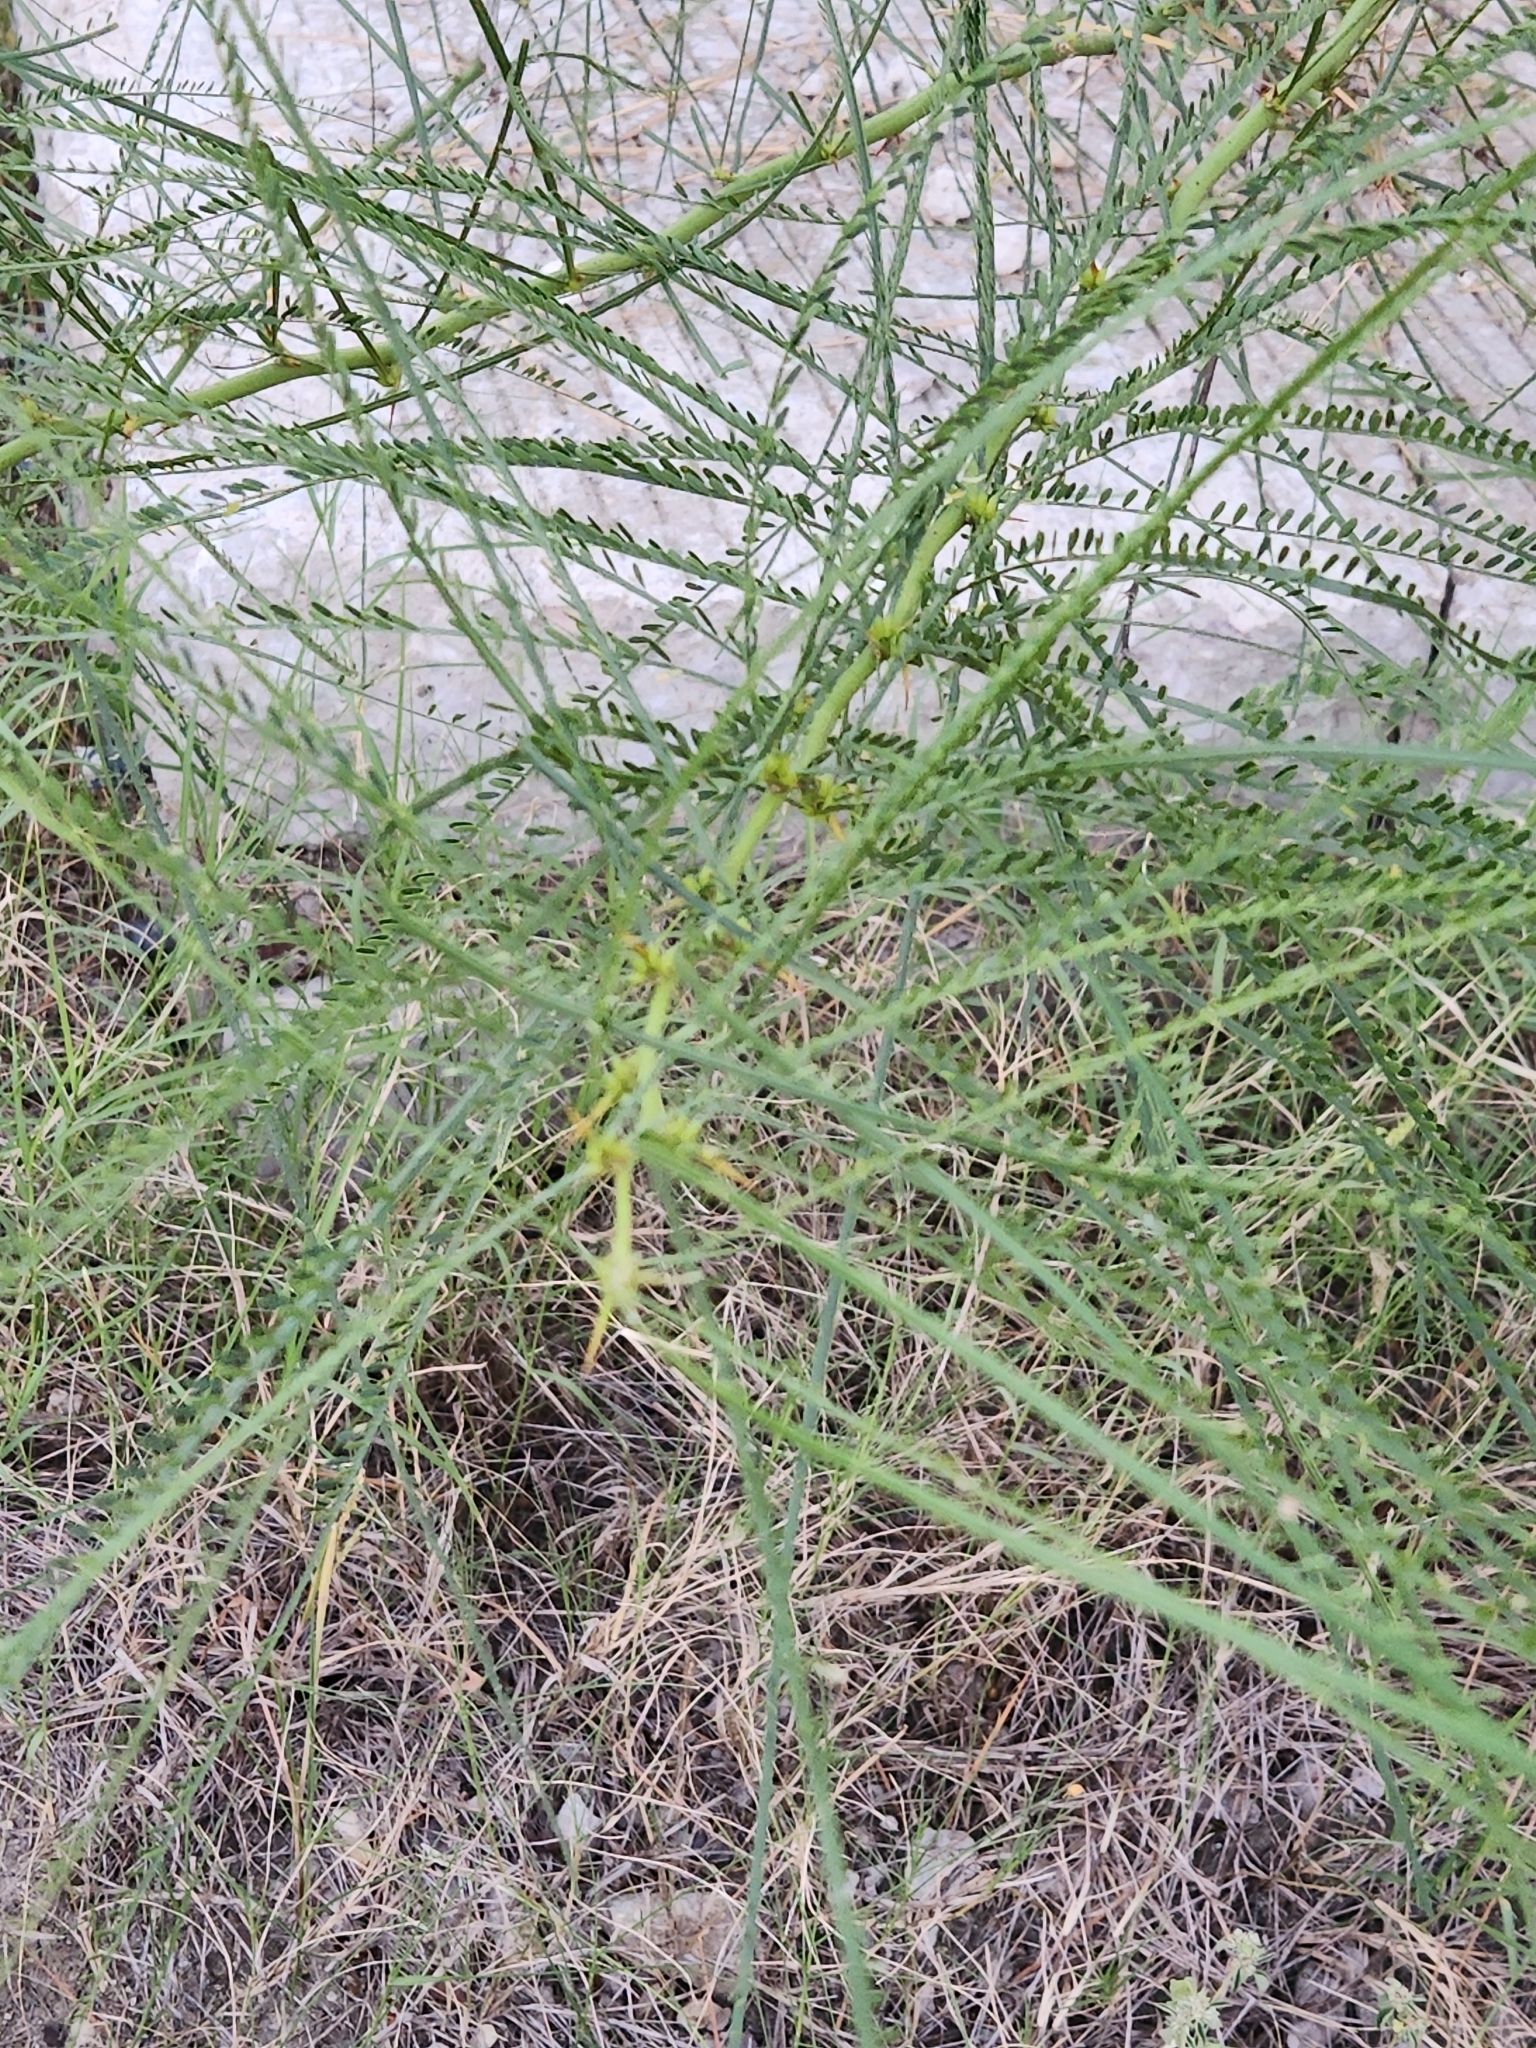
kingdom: Plantae
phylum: Tracheophyta
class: Magnoliopsida
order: Fabales
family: Fabaceae
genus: Parkinsonia
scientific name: Parkinsonia aculeata
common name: Jerusalem thorn
